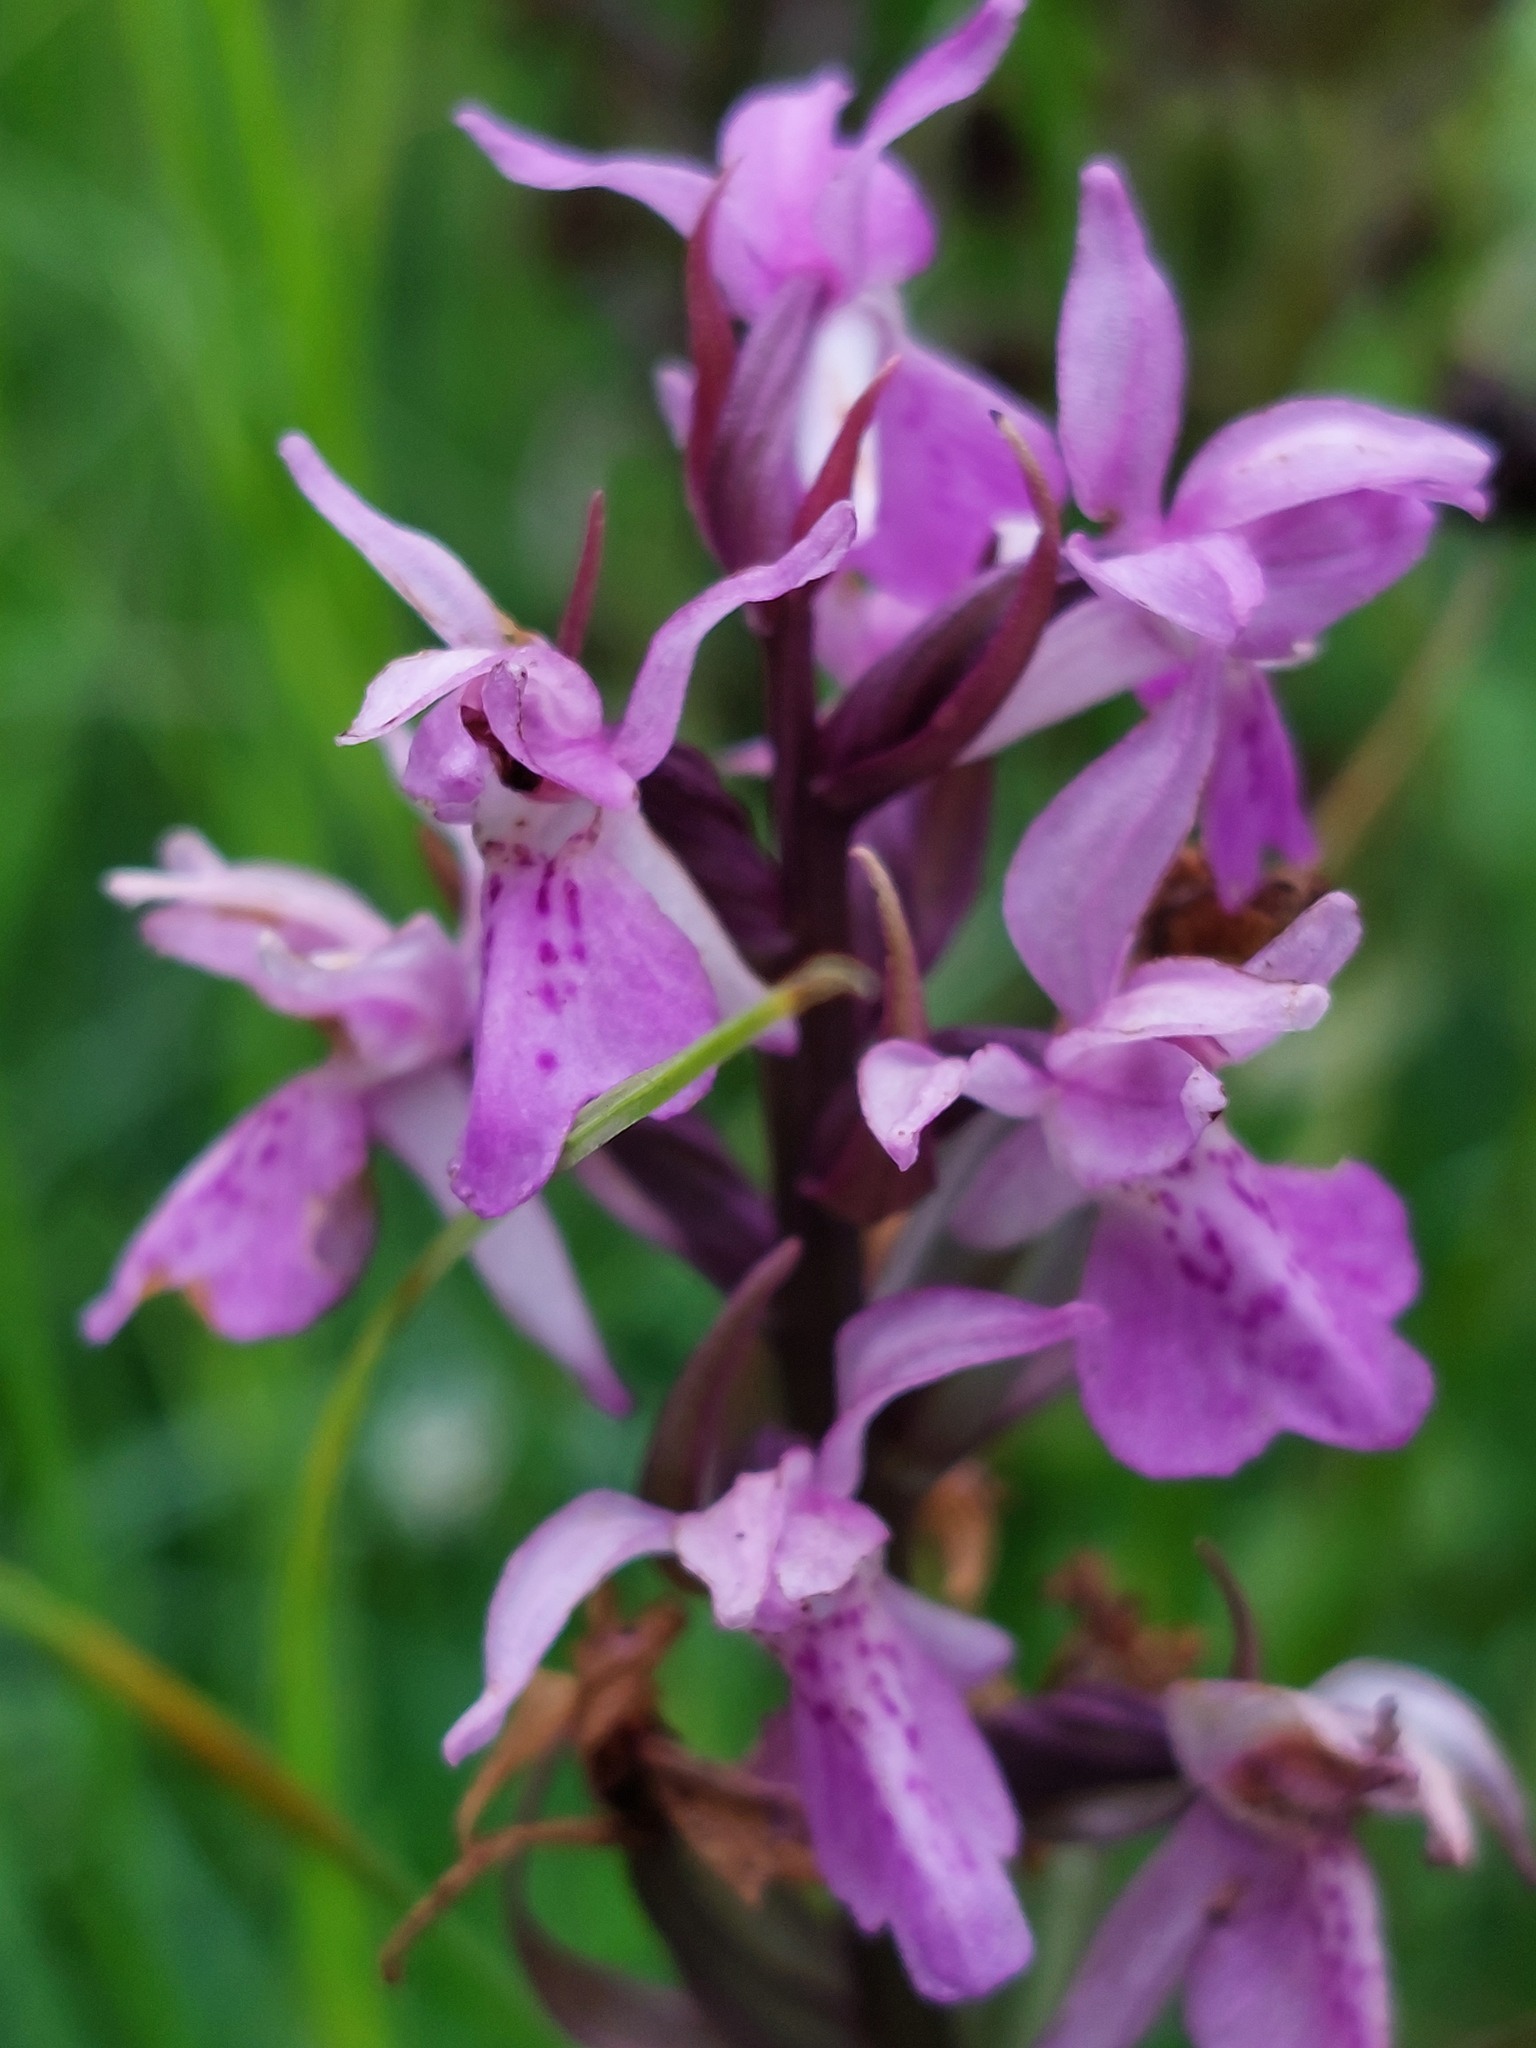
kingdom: Plantae
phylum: Tracheophyta
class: Liliopsida
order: Asparagales
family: Orchidaceae
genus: Dactylorhiza
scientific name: Dactylorhiza majalis
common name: Marsh orchid
